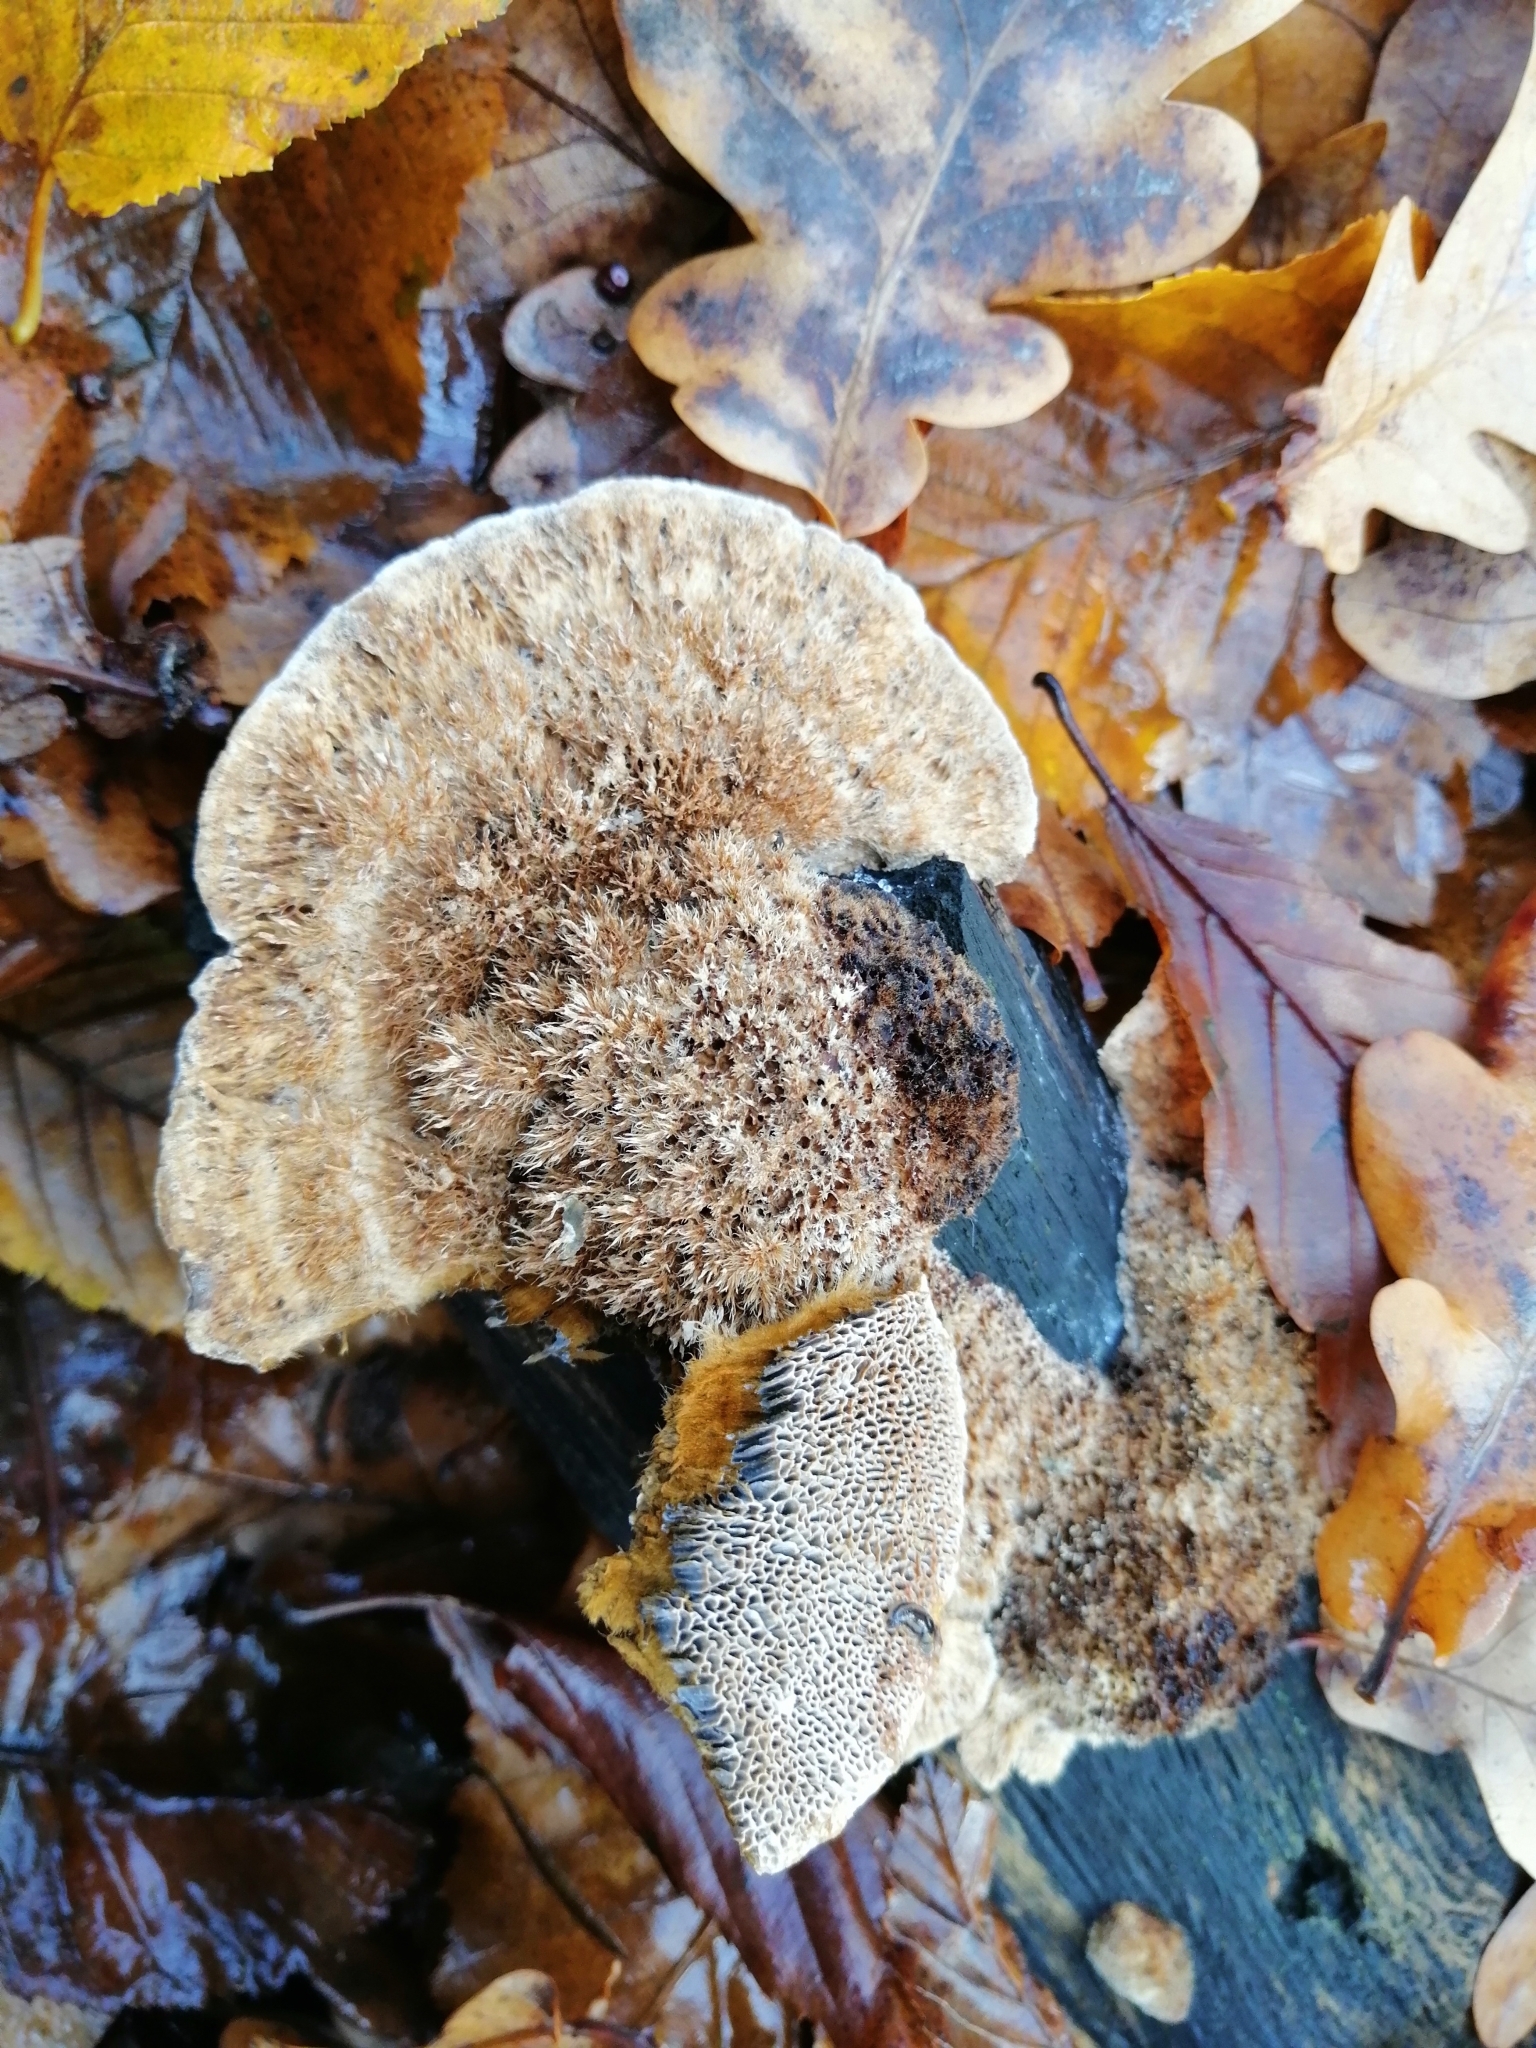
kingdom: Fungi
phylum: Basidiomycota
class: Agaricomycetes
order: Polyporales
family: Polyporaceae
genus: Trametes
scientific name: Trametes trogii
